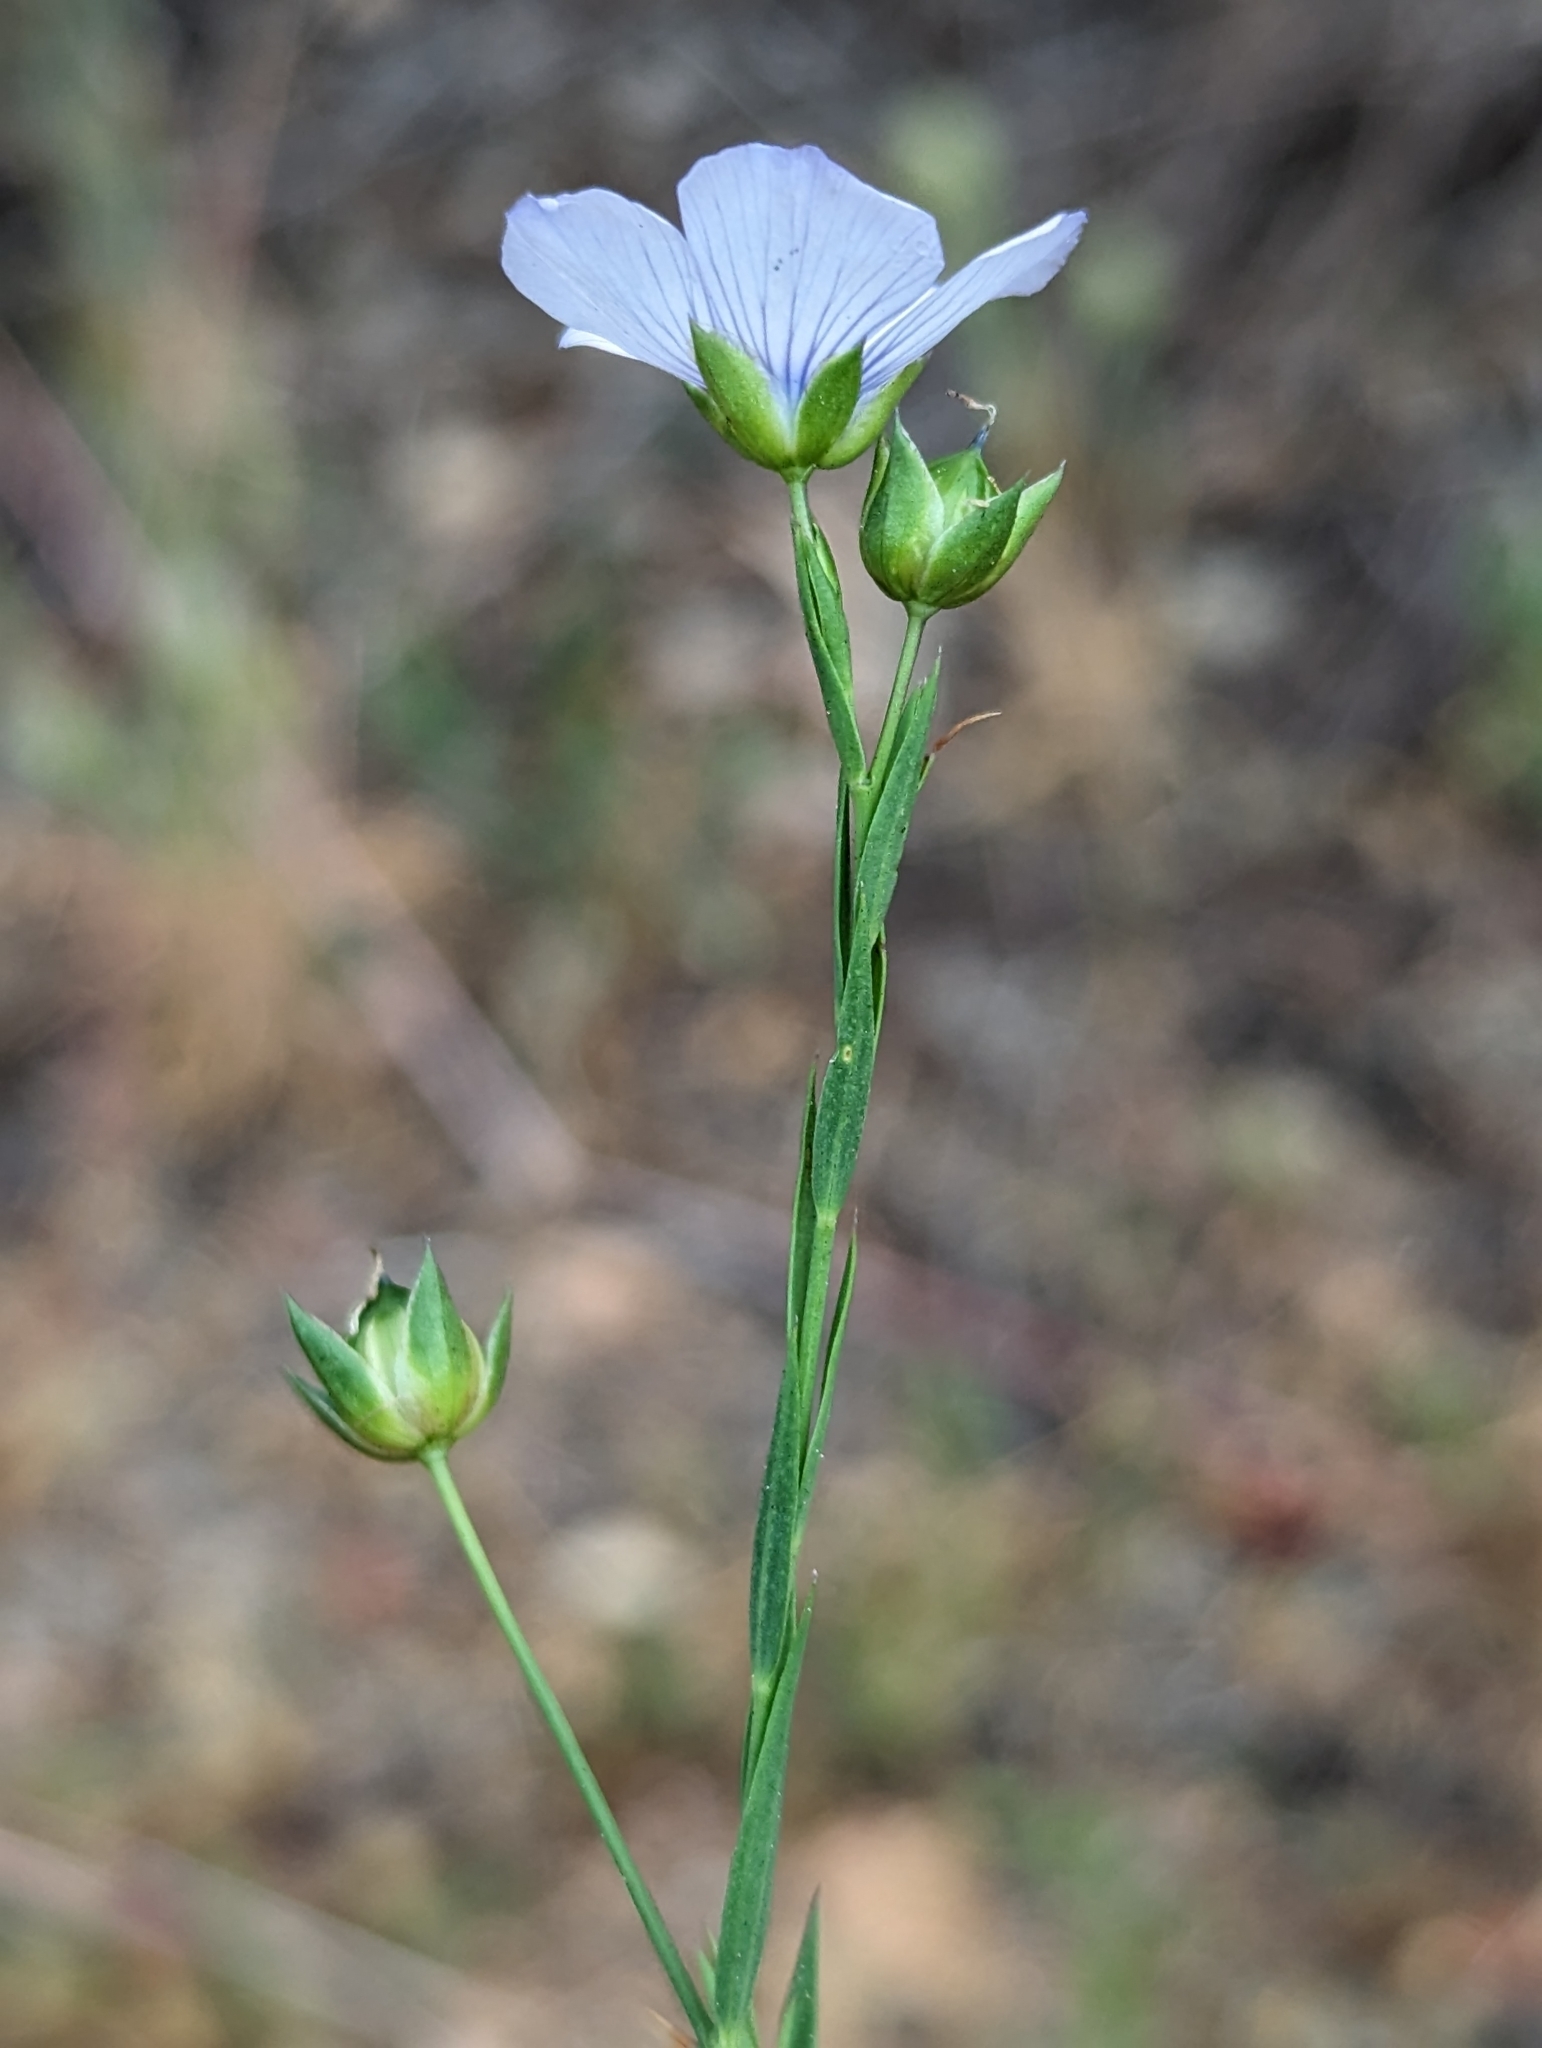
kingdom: Plantae
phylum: Tracheophyta
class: Magnoliopsida
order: Malpighiales
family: Linaceae
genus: Linum
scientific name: Linum bienne
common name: Pale flax
